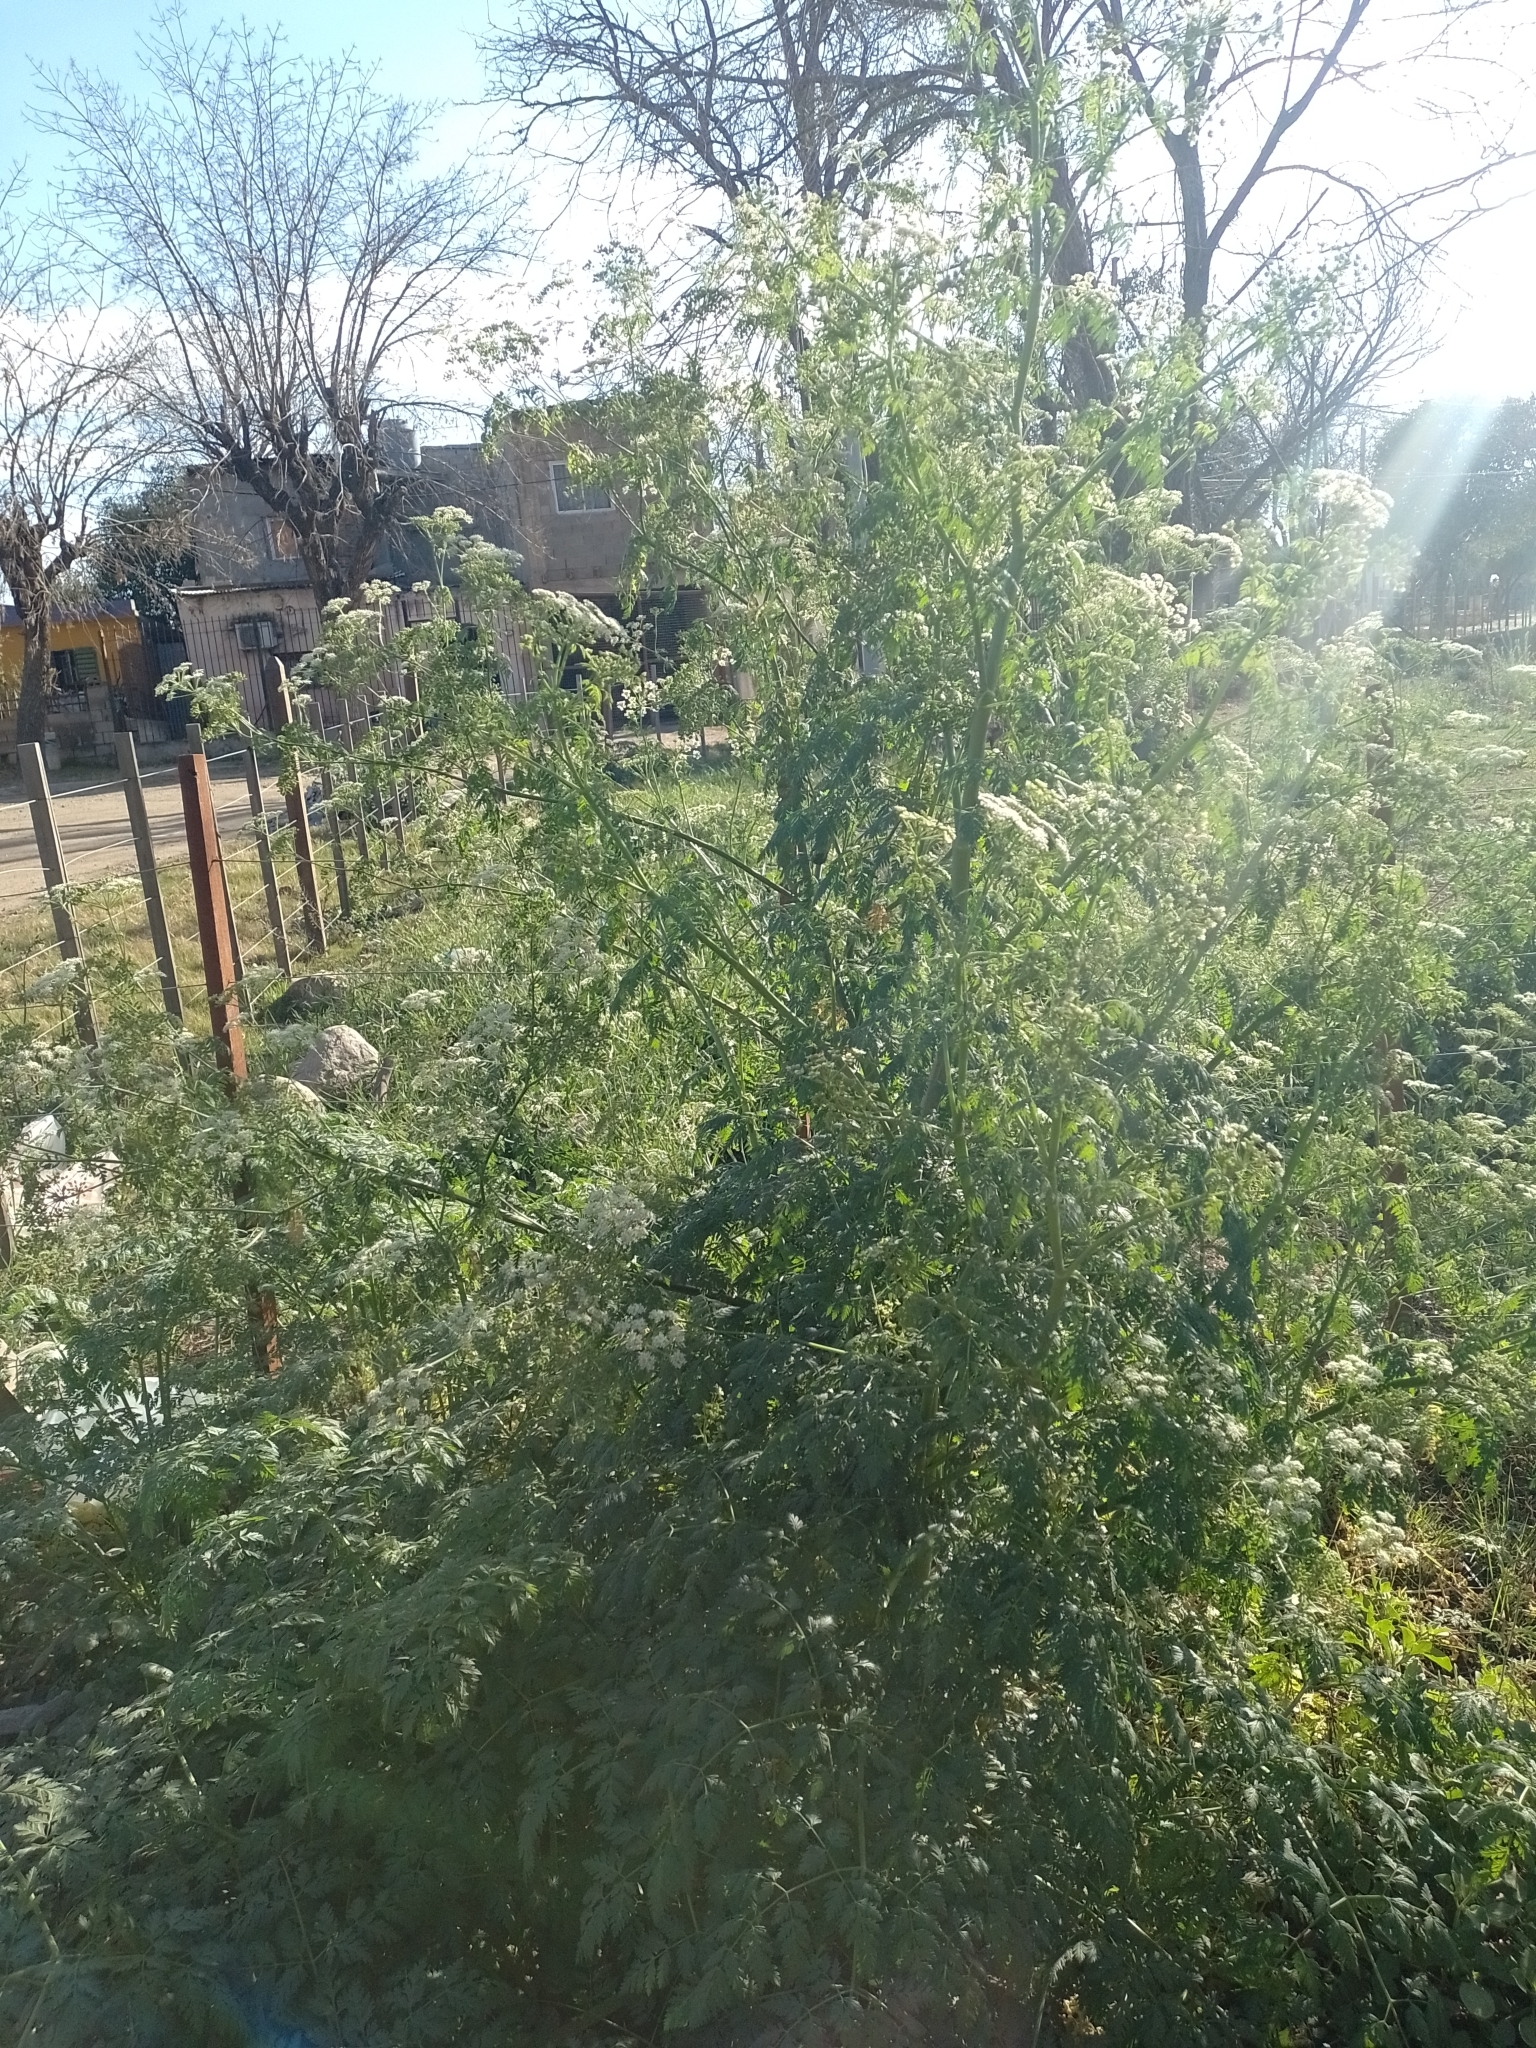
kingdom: Plantae
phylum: Tracheophyta
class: Magnoliopsida
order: Apiales
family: Apiaceae
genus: Conium
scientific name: Conium maculatum
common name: Hemlock
